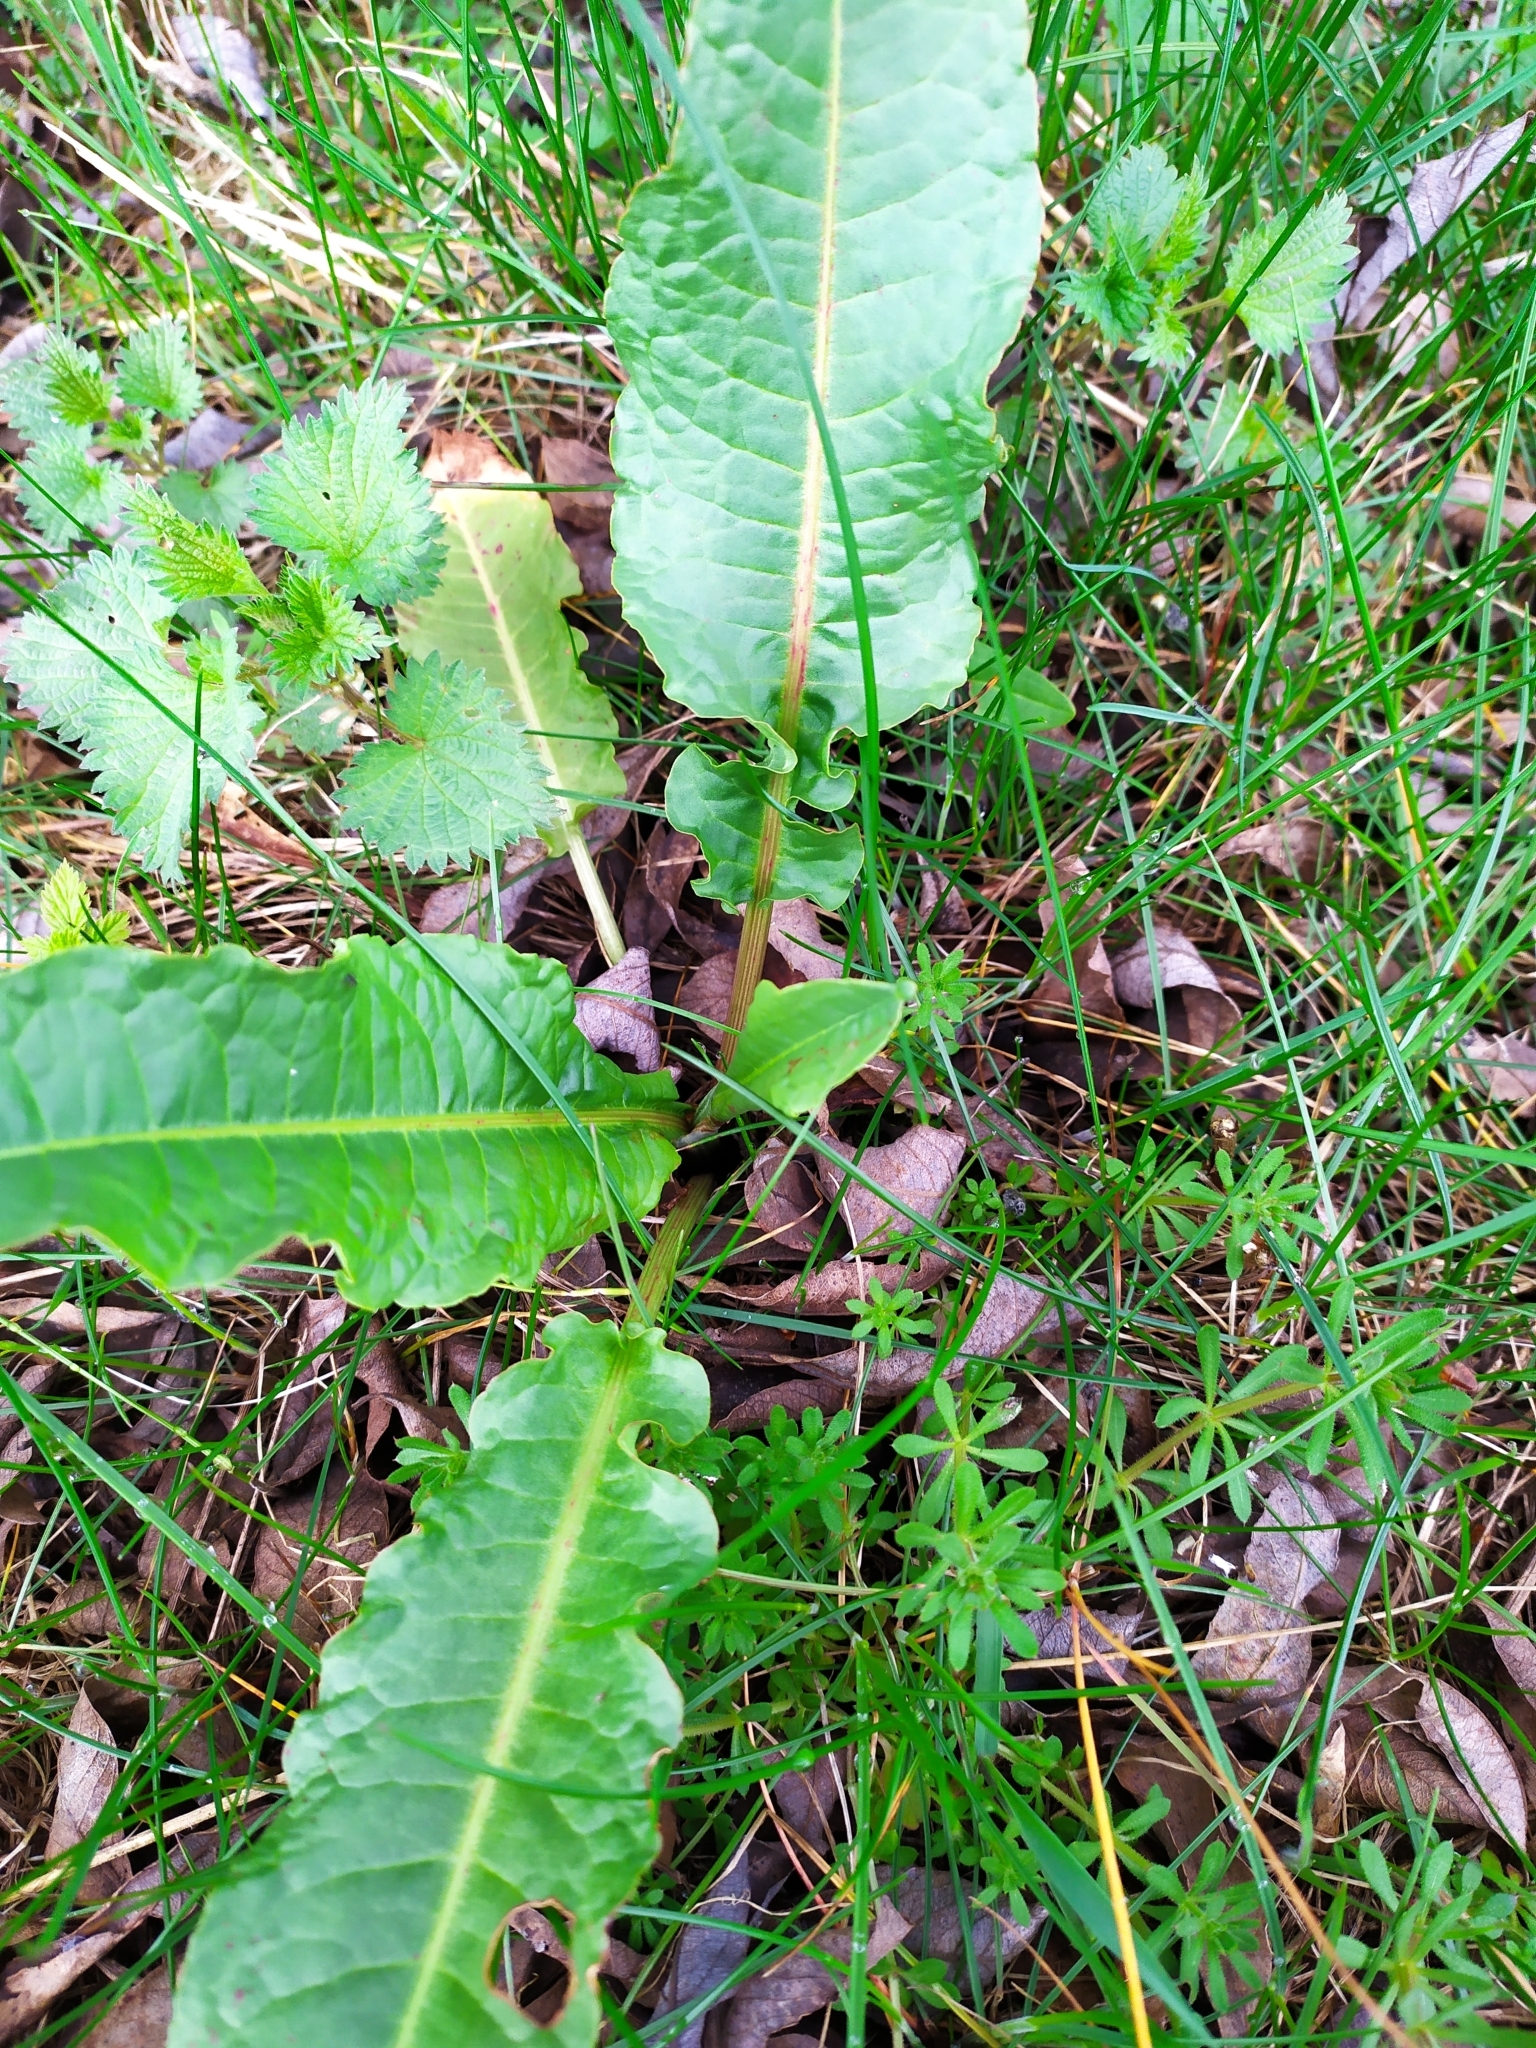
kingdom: Plantae
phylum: Tracheophyta
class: Magnoliopsida
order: Caryophyllales
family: Polygonaceae
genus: Rumex
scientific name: Rumex crispus
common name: Curled dock
